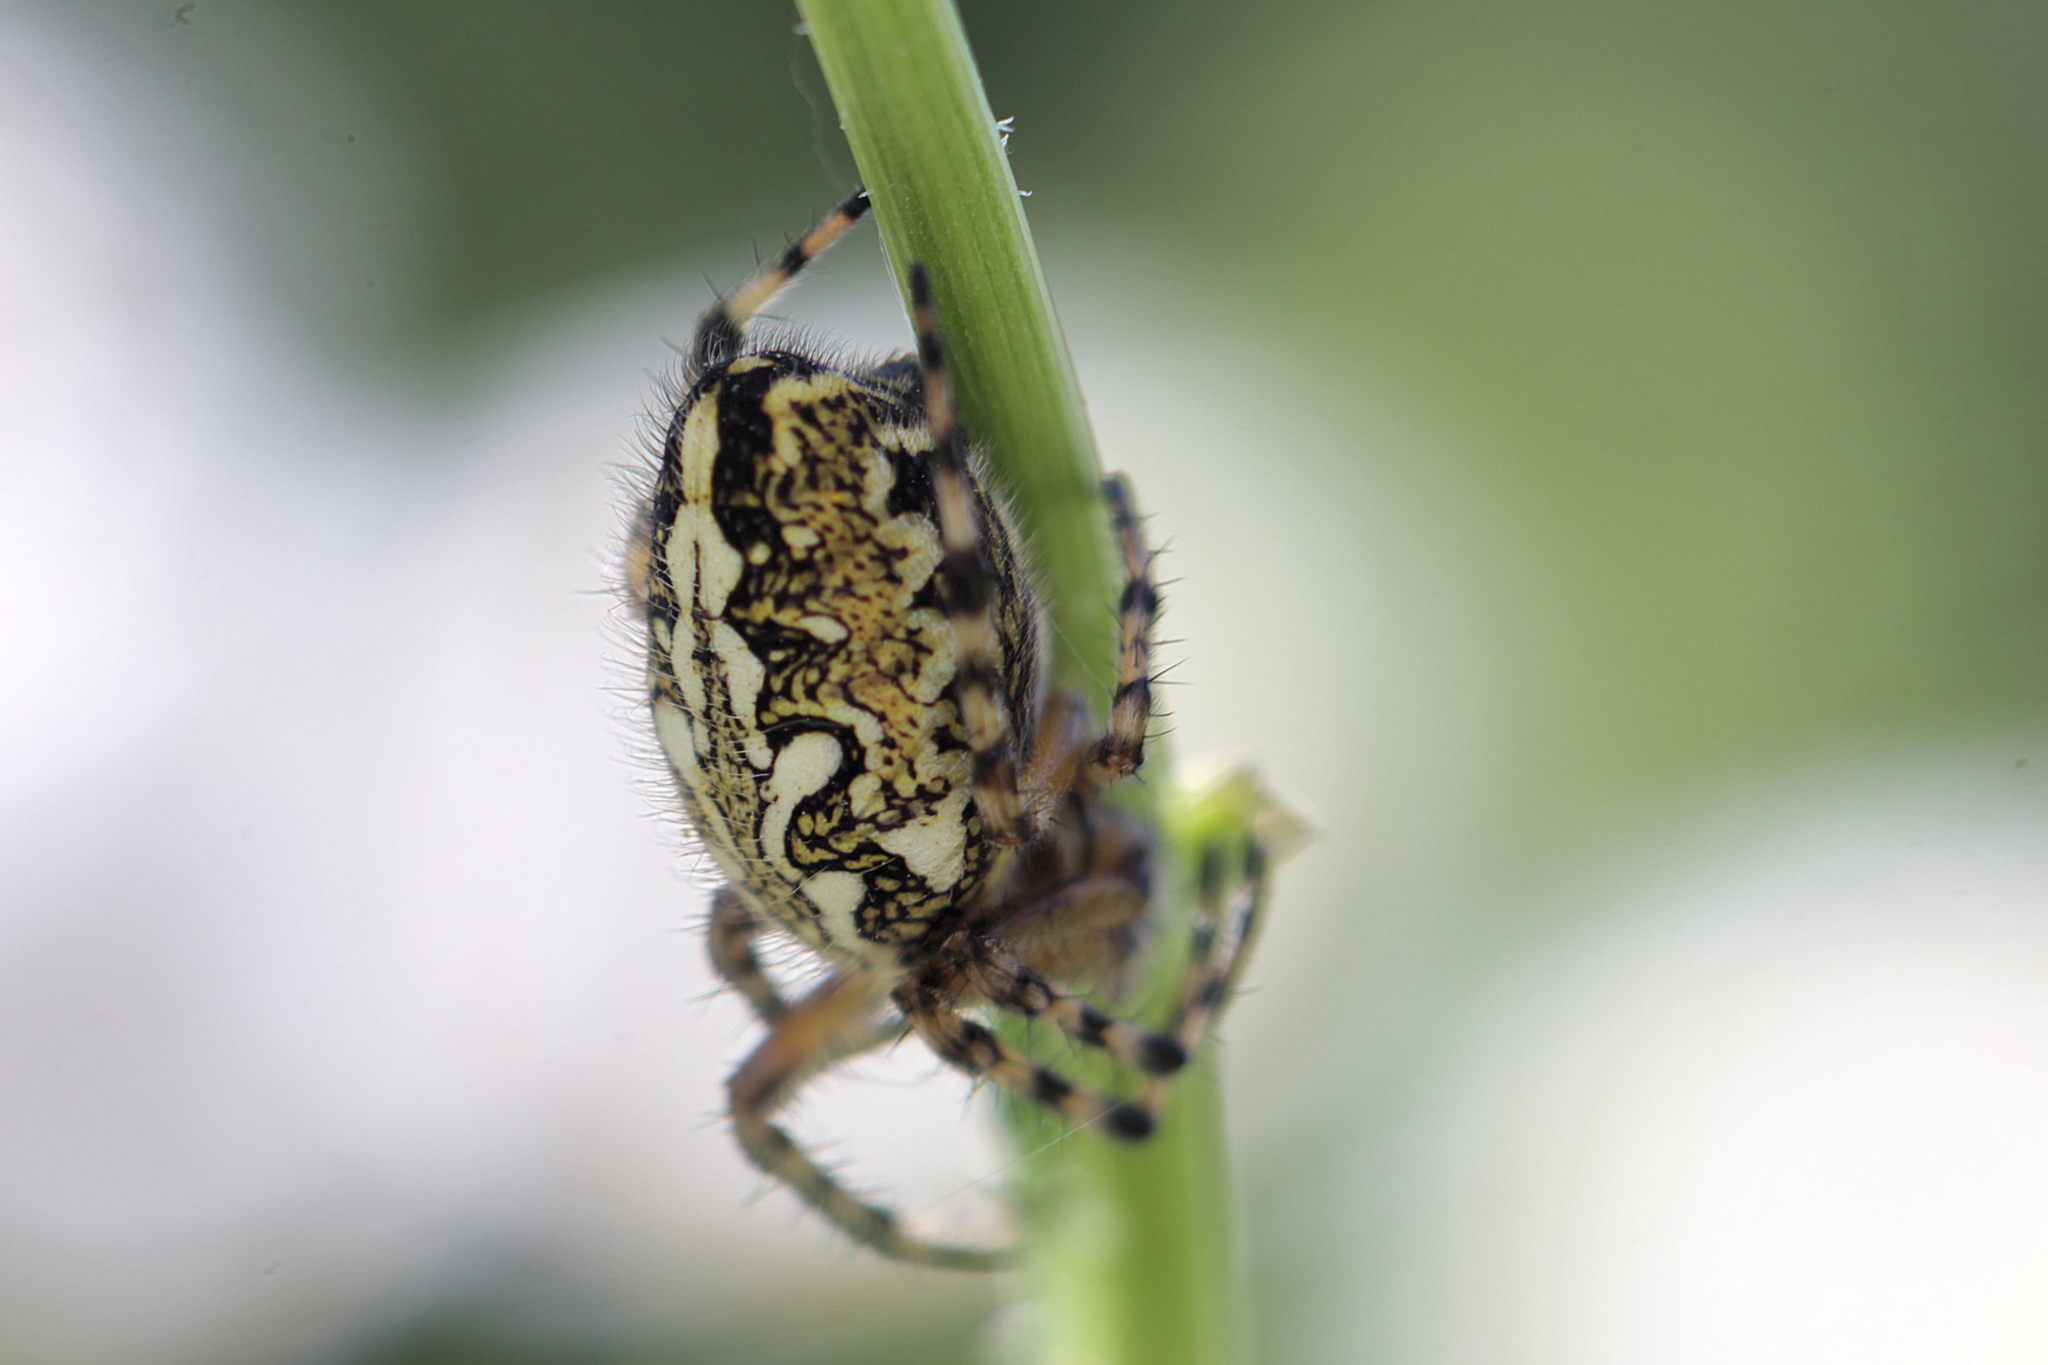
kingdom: Animalia
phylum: Arthropoda
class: Arachnida
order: Araneae
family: Araneidae
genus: Aculepeira
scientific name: Aculepeira ceropegia
